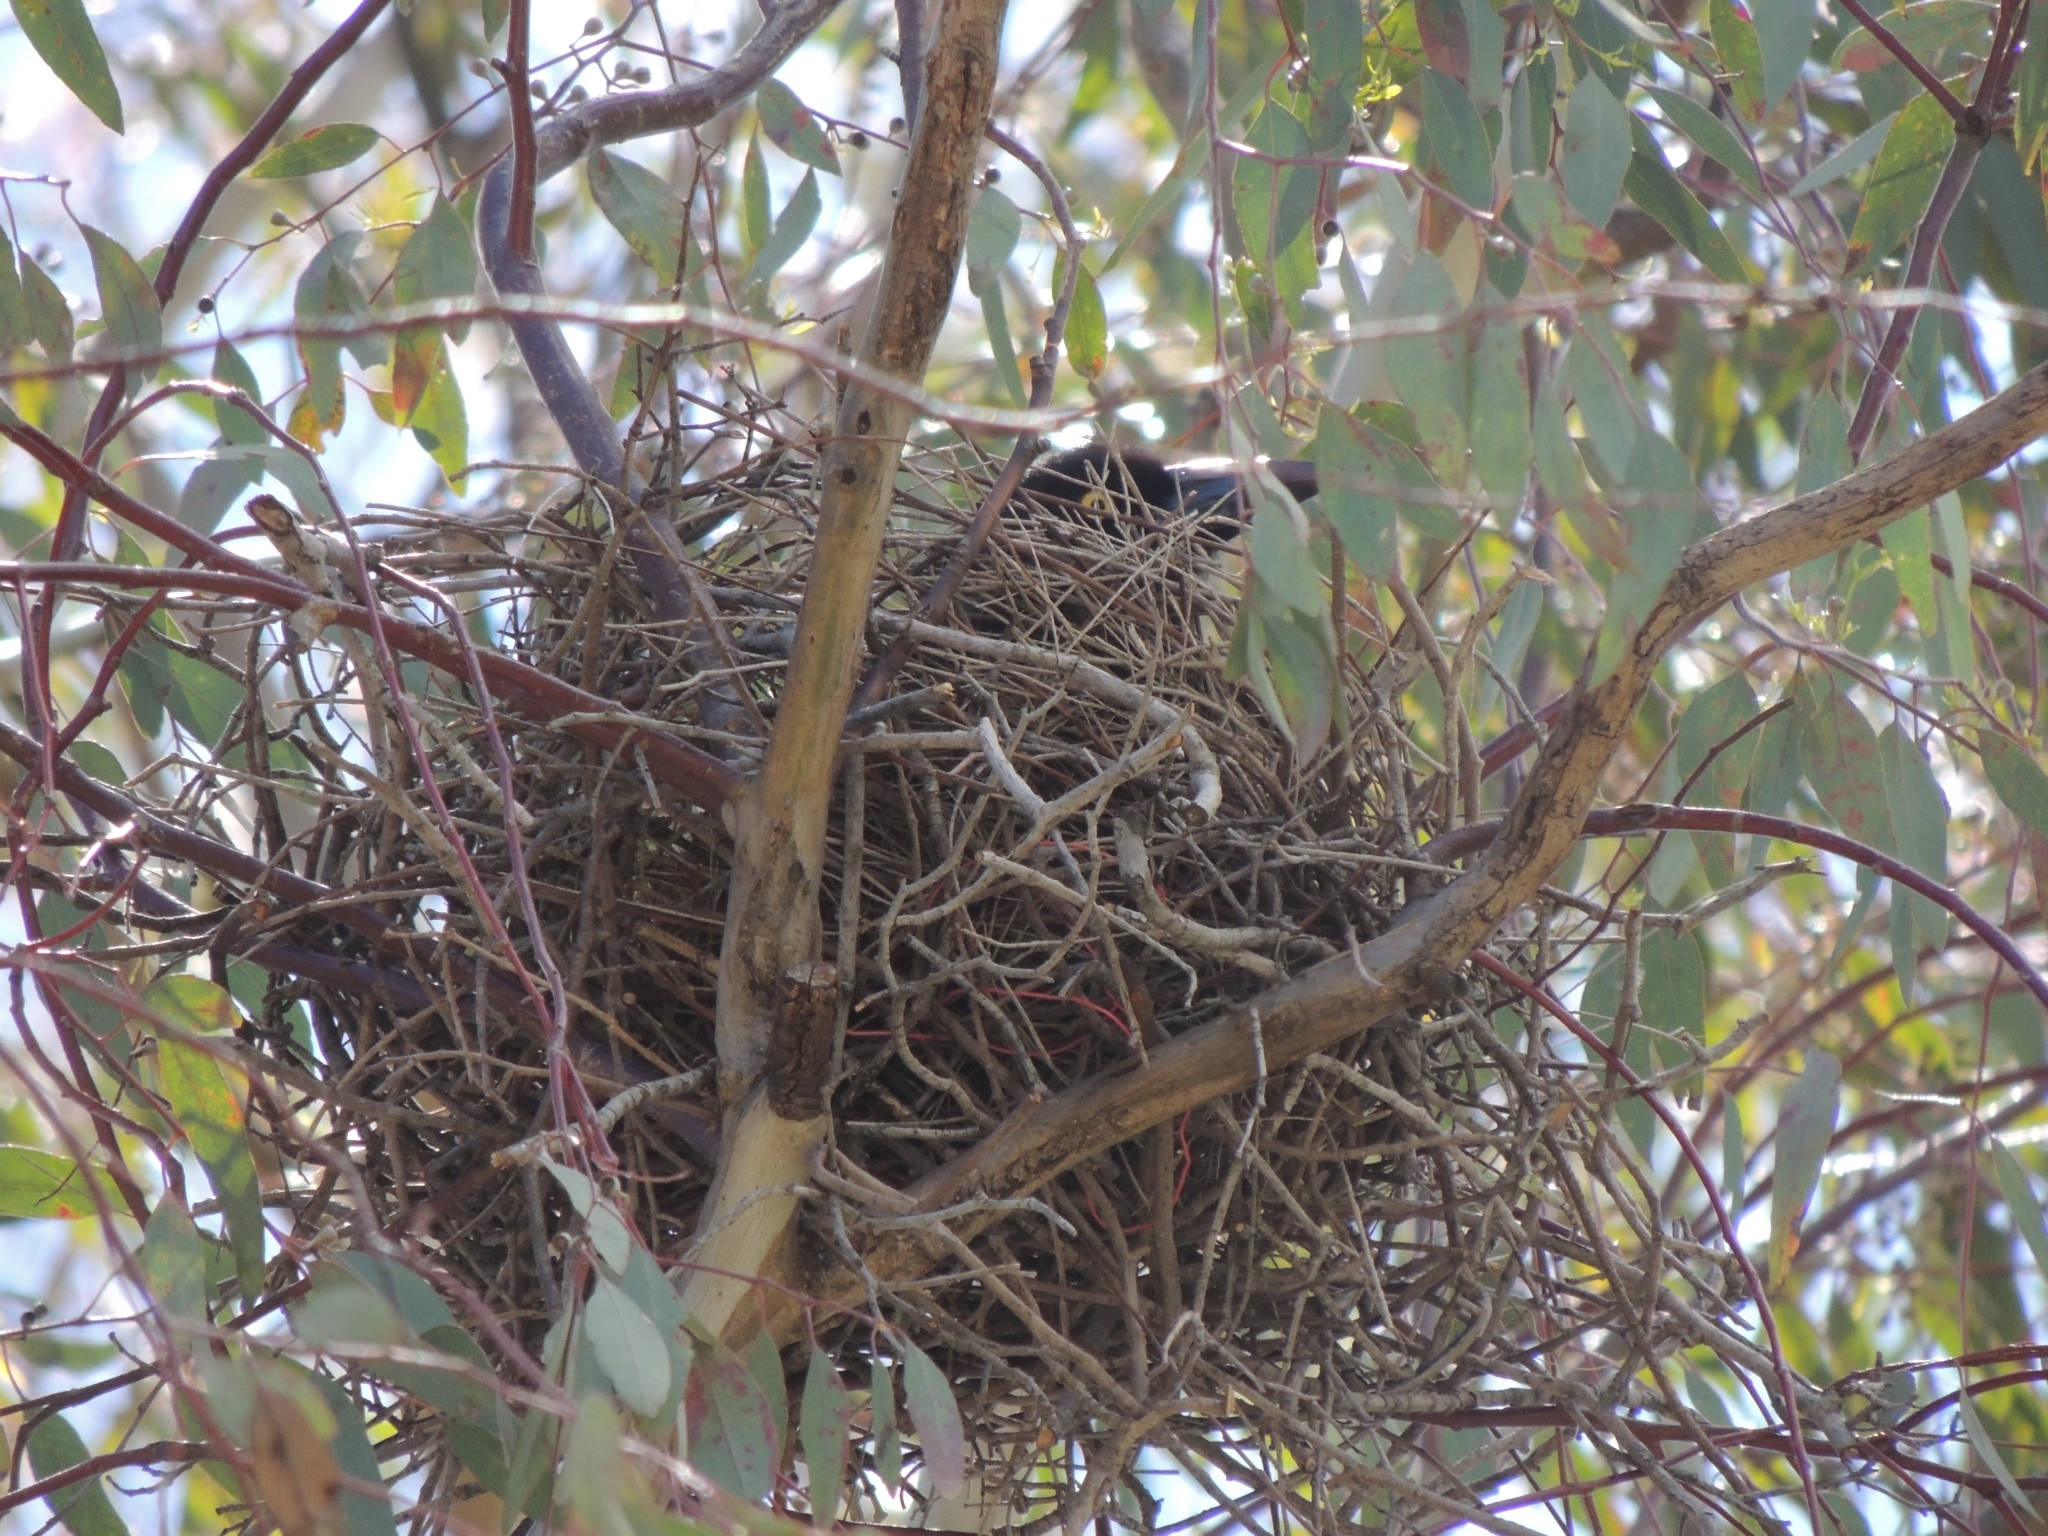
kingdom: Animalia
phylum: Chordata
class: Aves
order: Passeriformes
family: Cracticidae
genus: Strepera
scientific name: Strepera graculina
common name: Pied currawong
